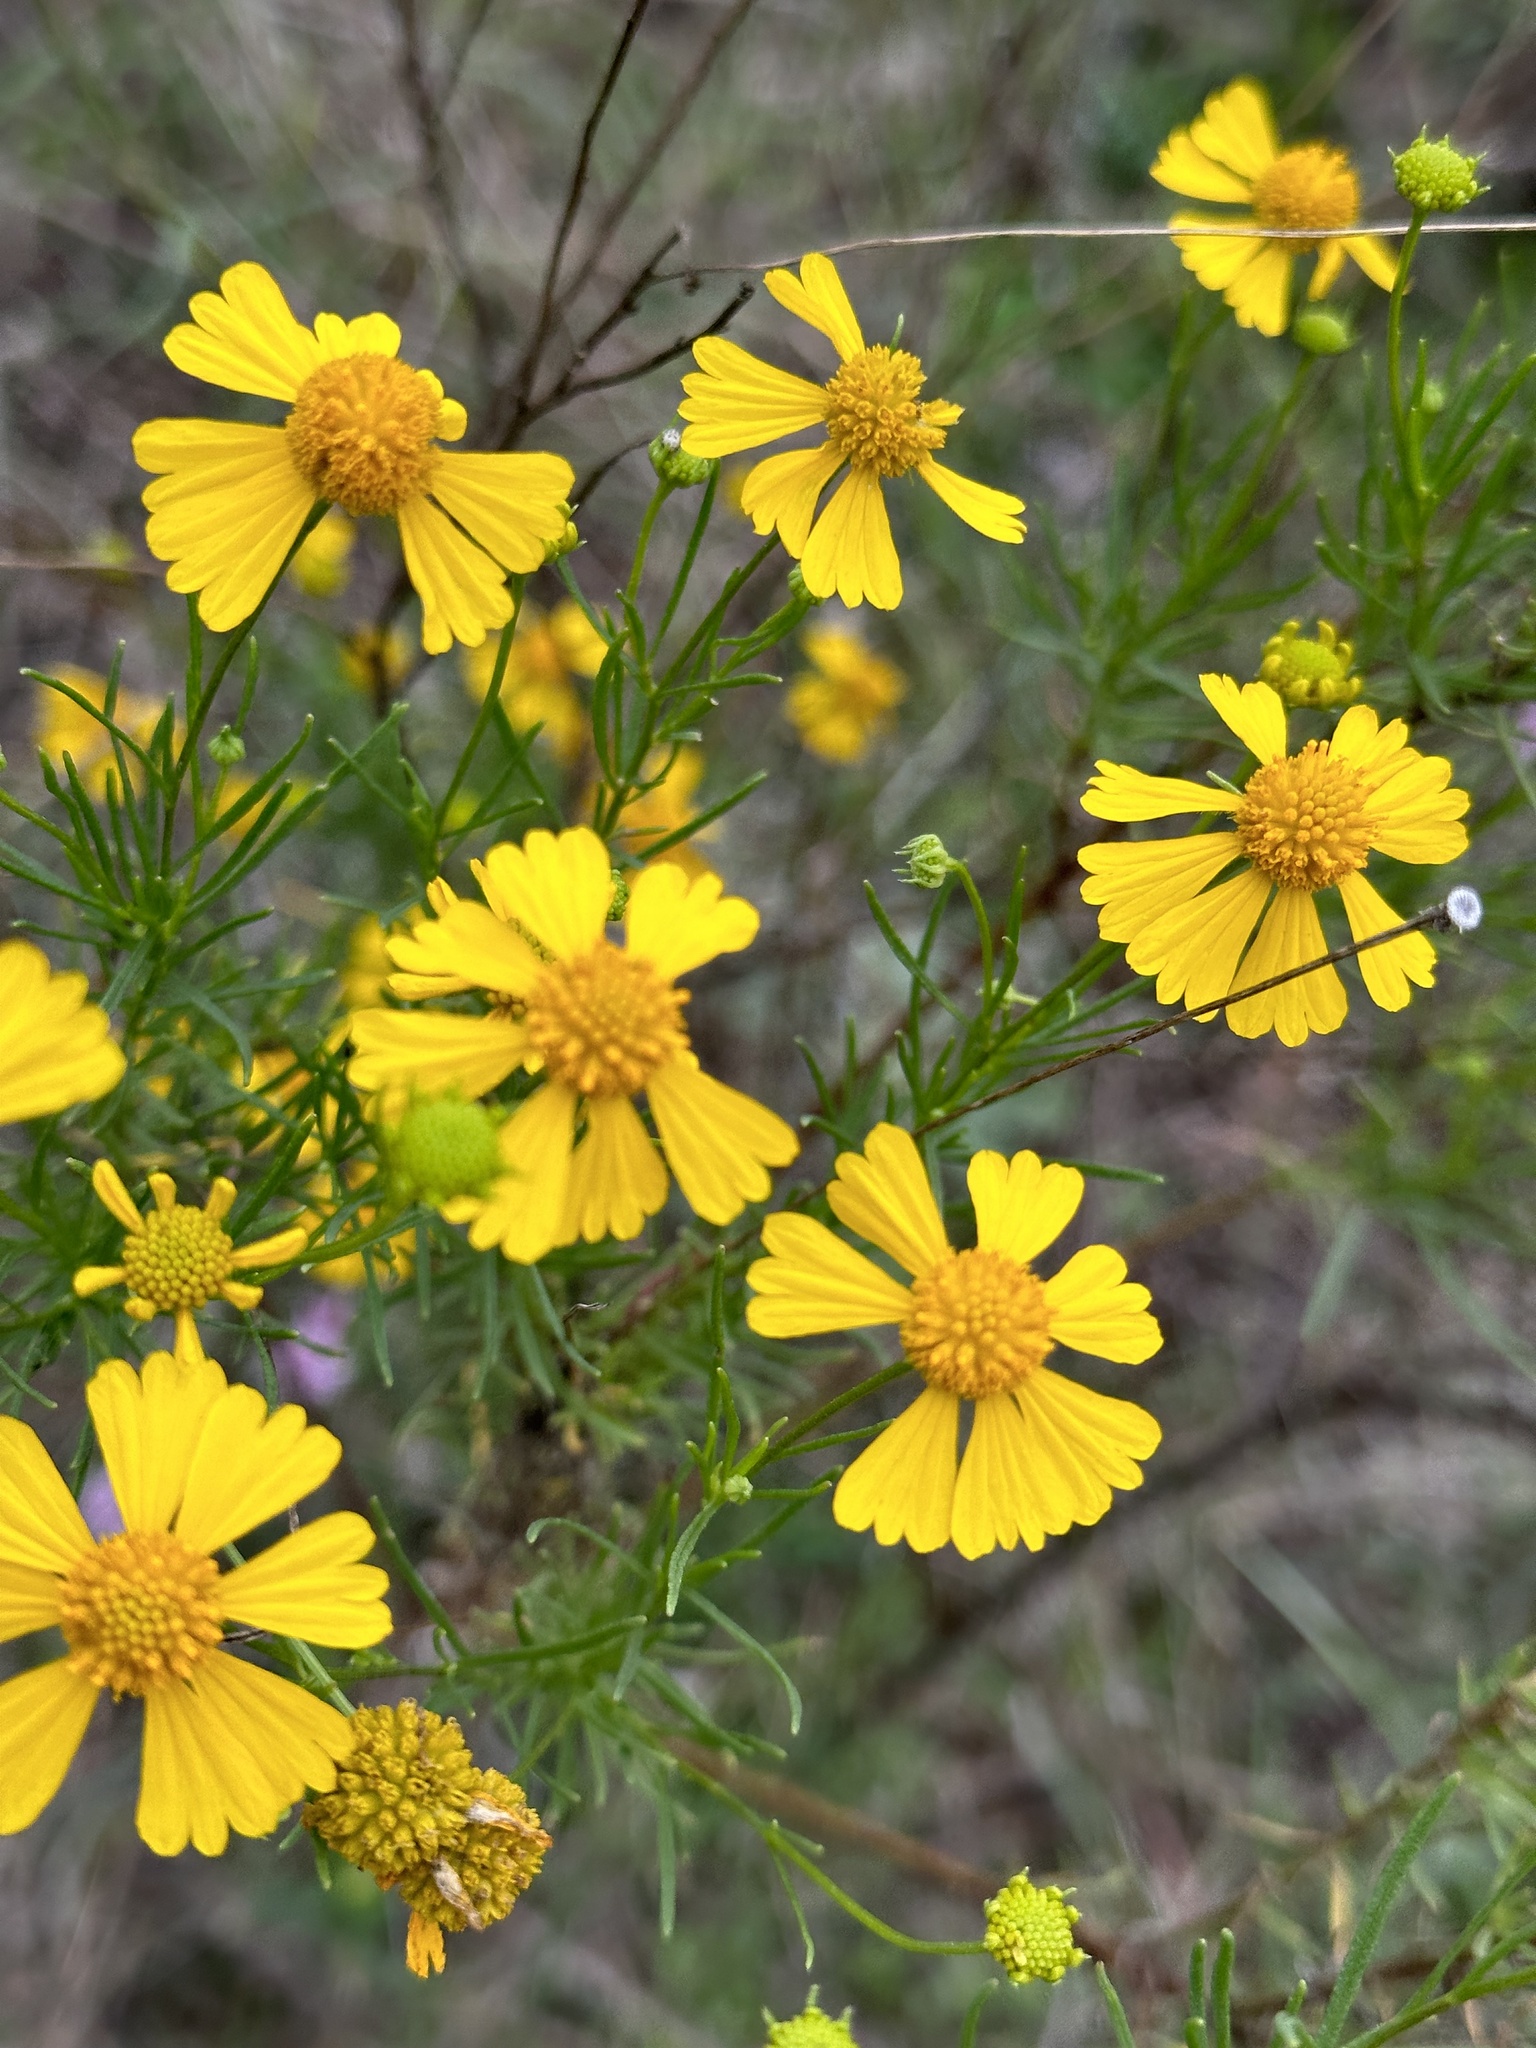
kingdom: Plantae
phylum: Tracheophyta
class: Magnoliopsida
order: Asterales
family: Asteraceae
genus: Helenium
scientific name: Helenium amarum
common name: Bitter sneezeweed
